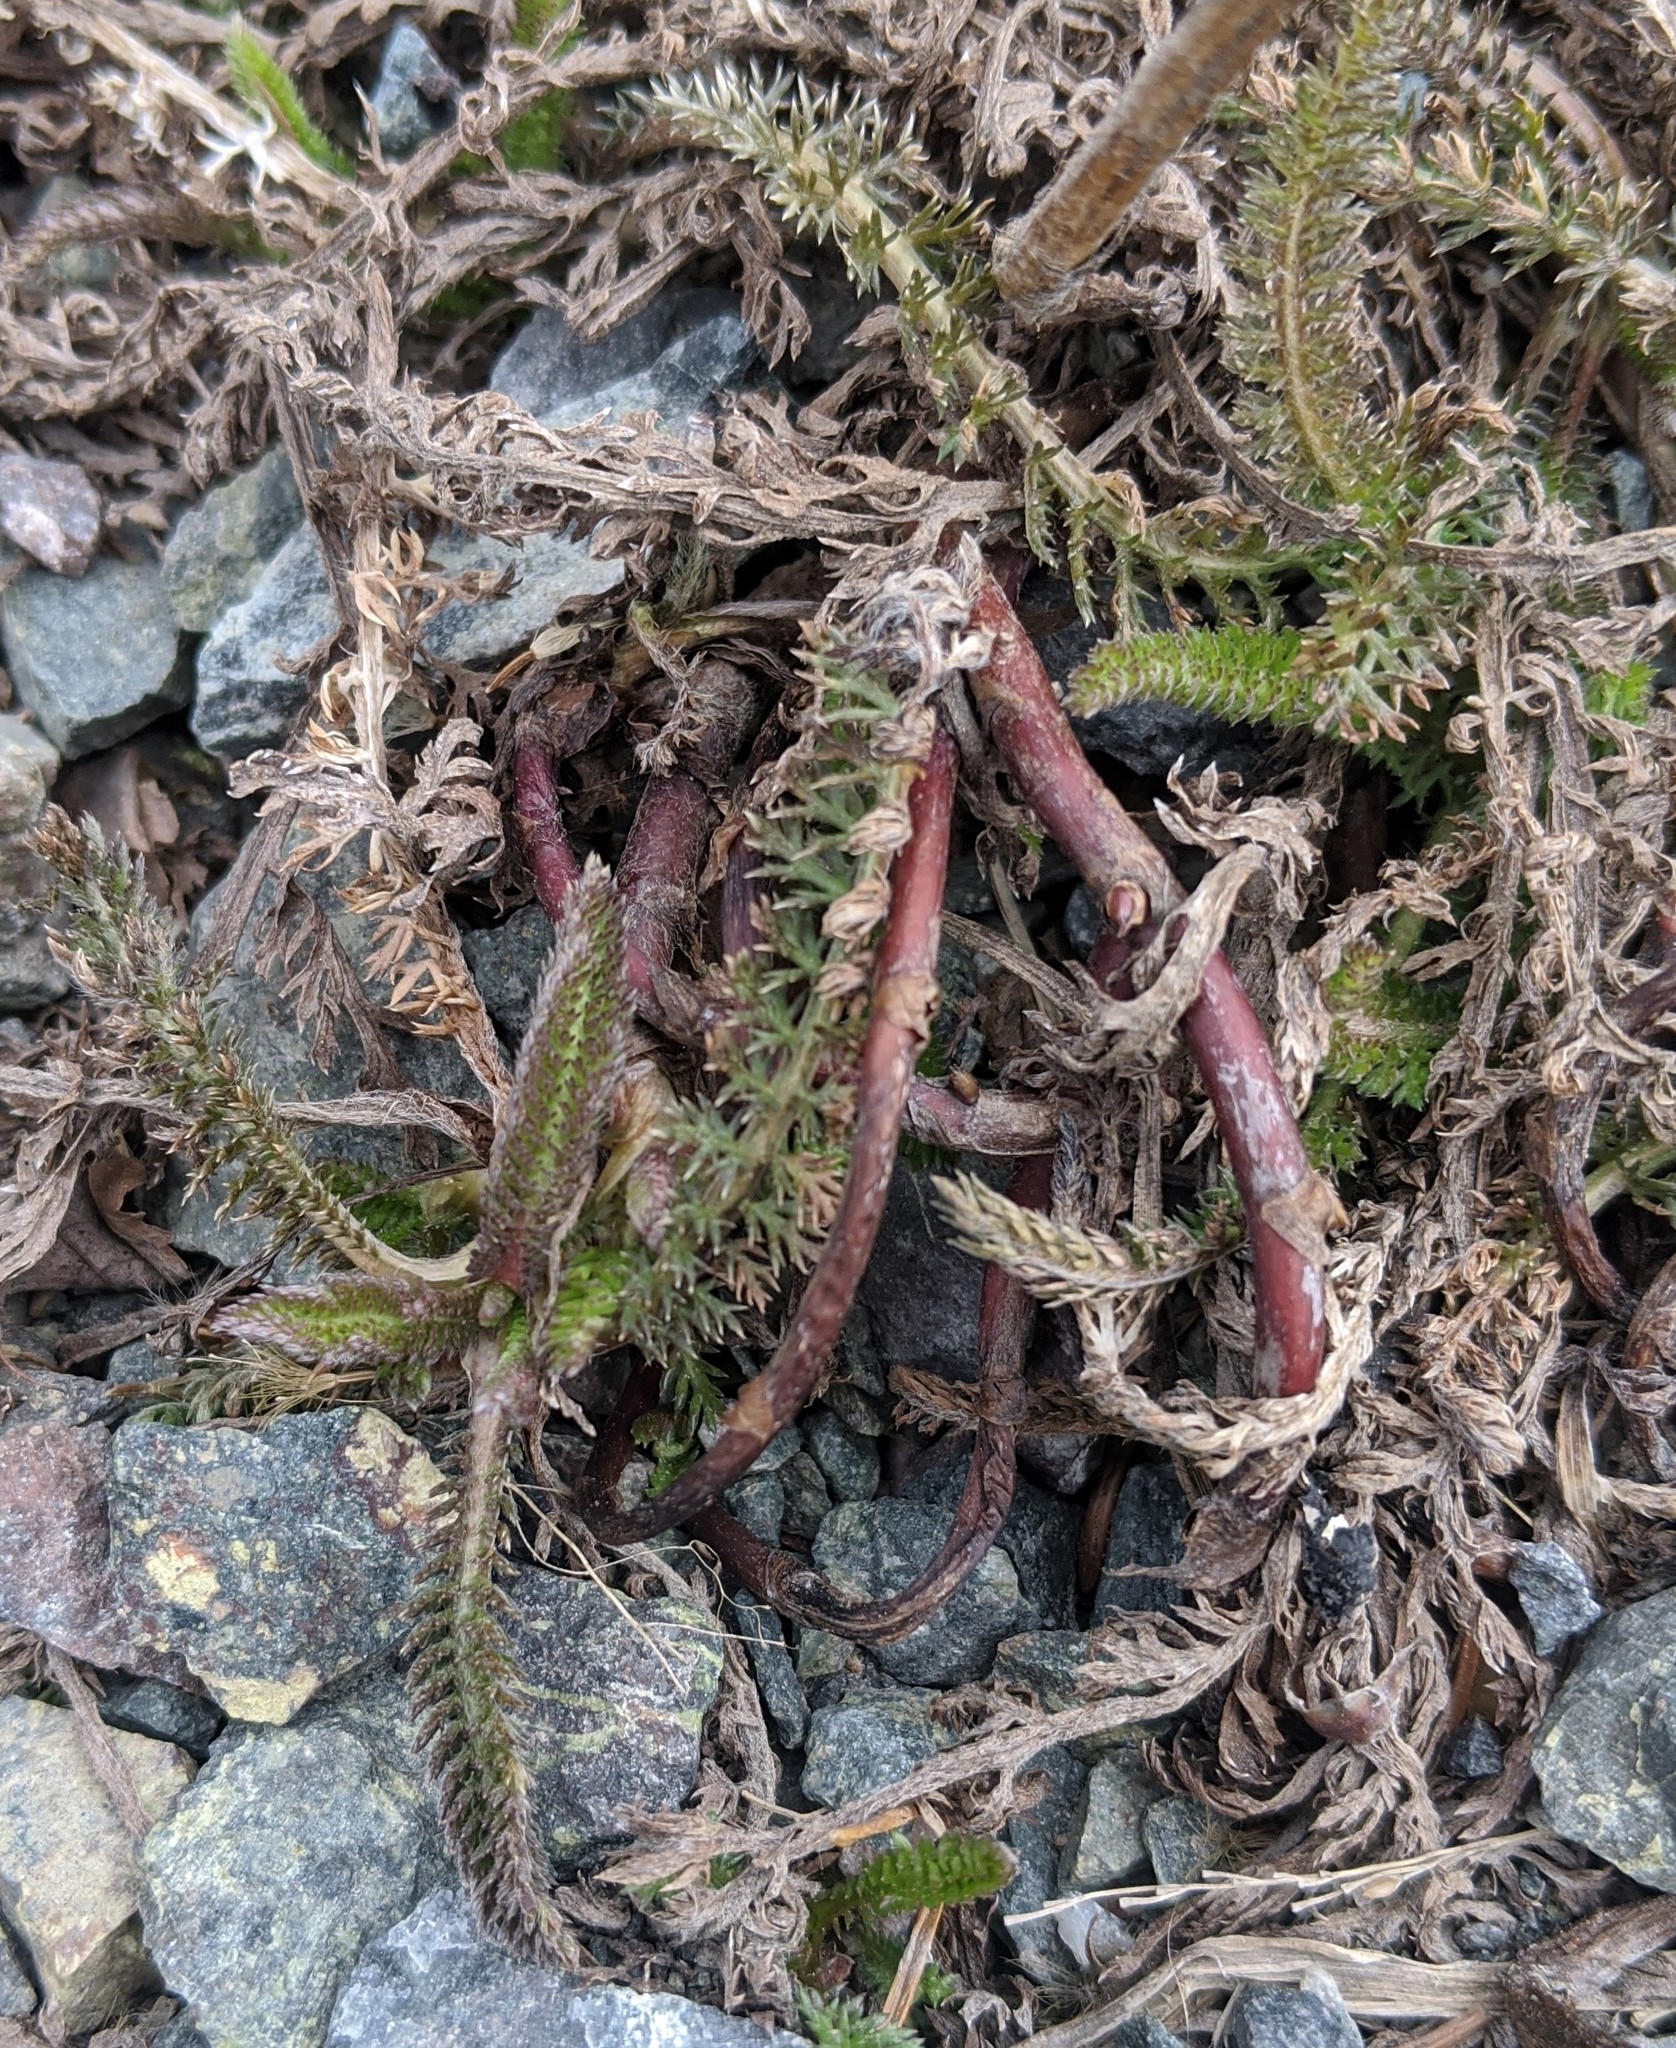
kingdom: Plantae
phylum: Tracheophyta
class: Magnoliopsida
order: Asterales
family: Asteraceae
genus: Achillea
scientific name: Achillea millefolium
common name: Yarrow
